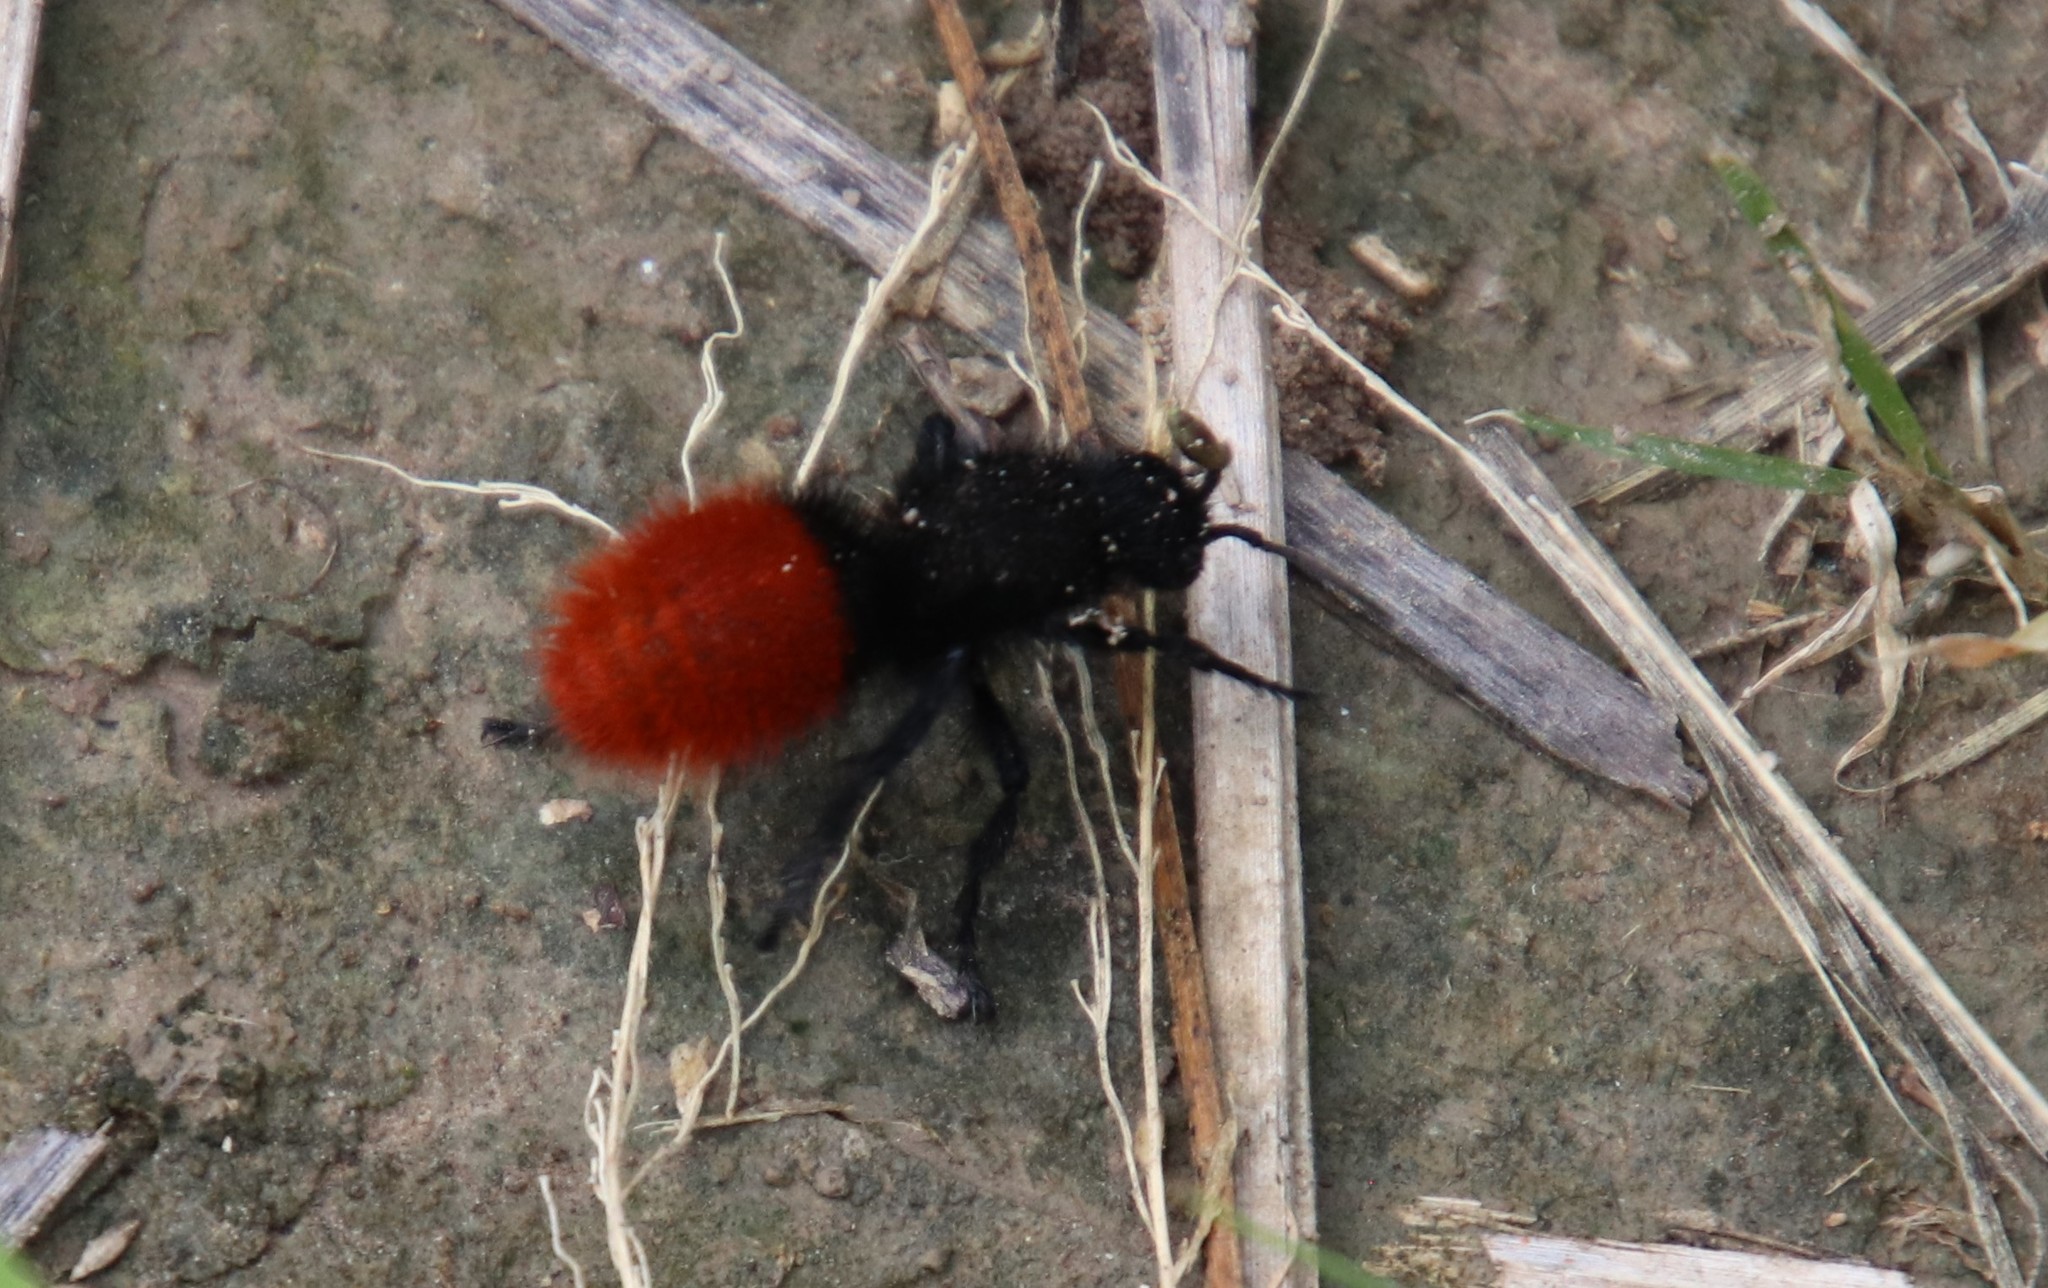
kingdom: Animalia
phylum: Arthropoda
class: Insecta
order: Hymenoptera
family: Mutillidae
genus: Dasymutilla
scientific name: Dasymutilla
